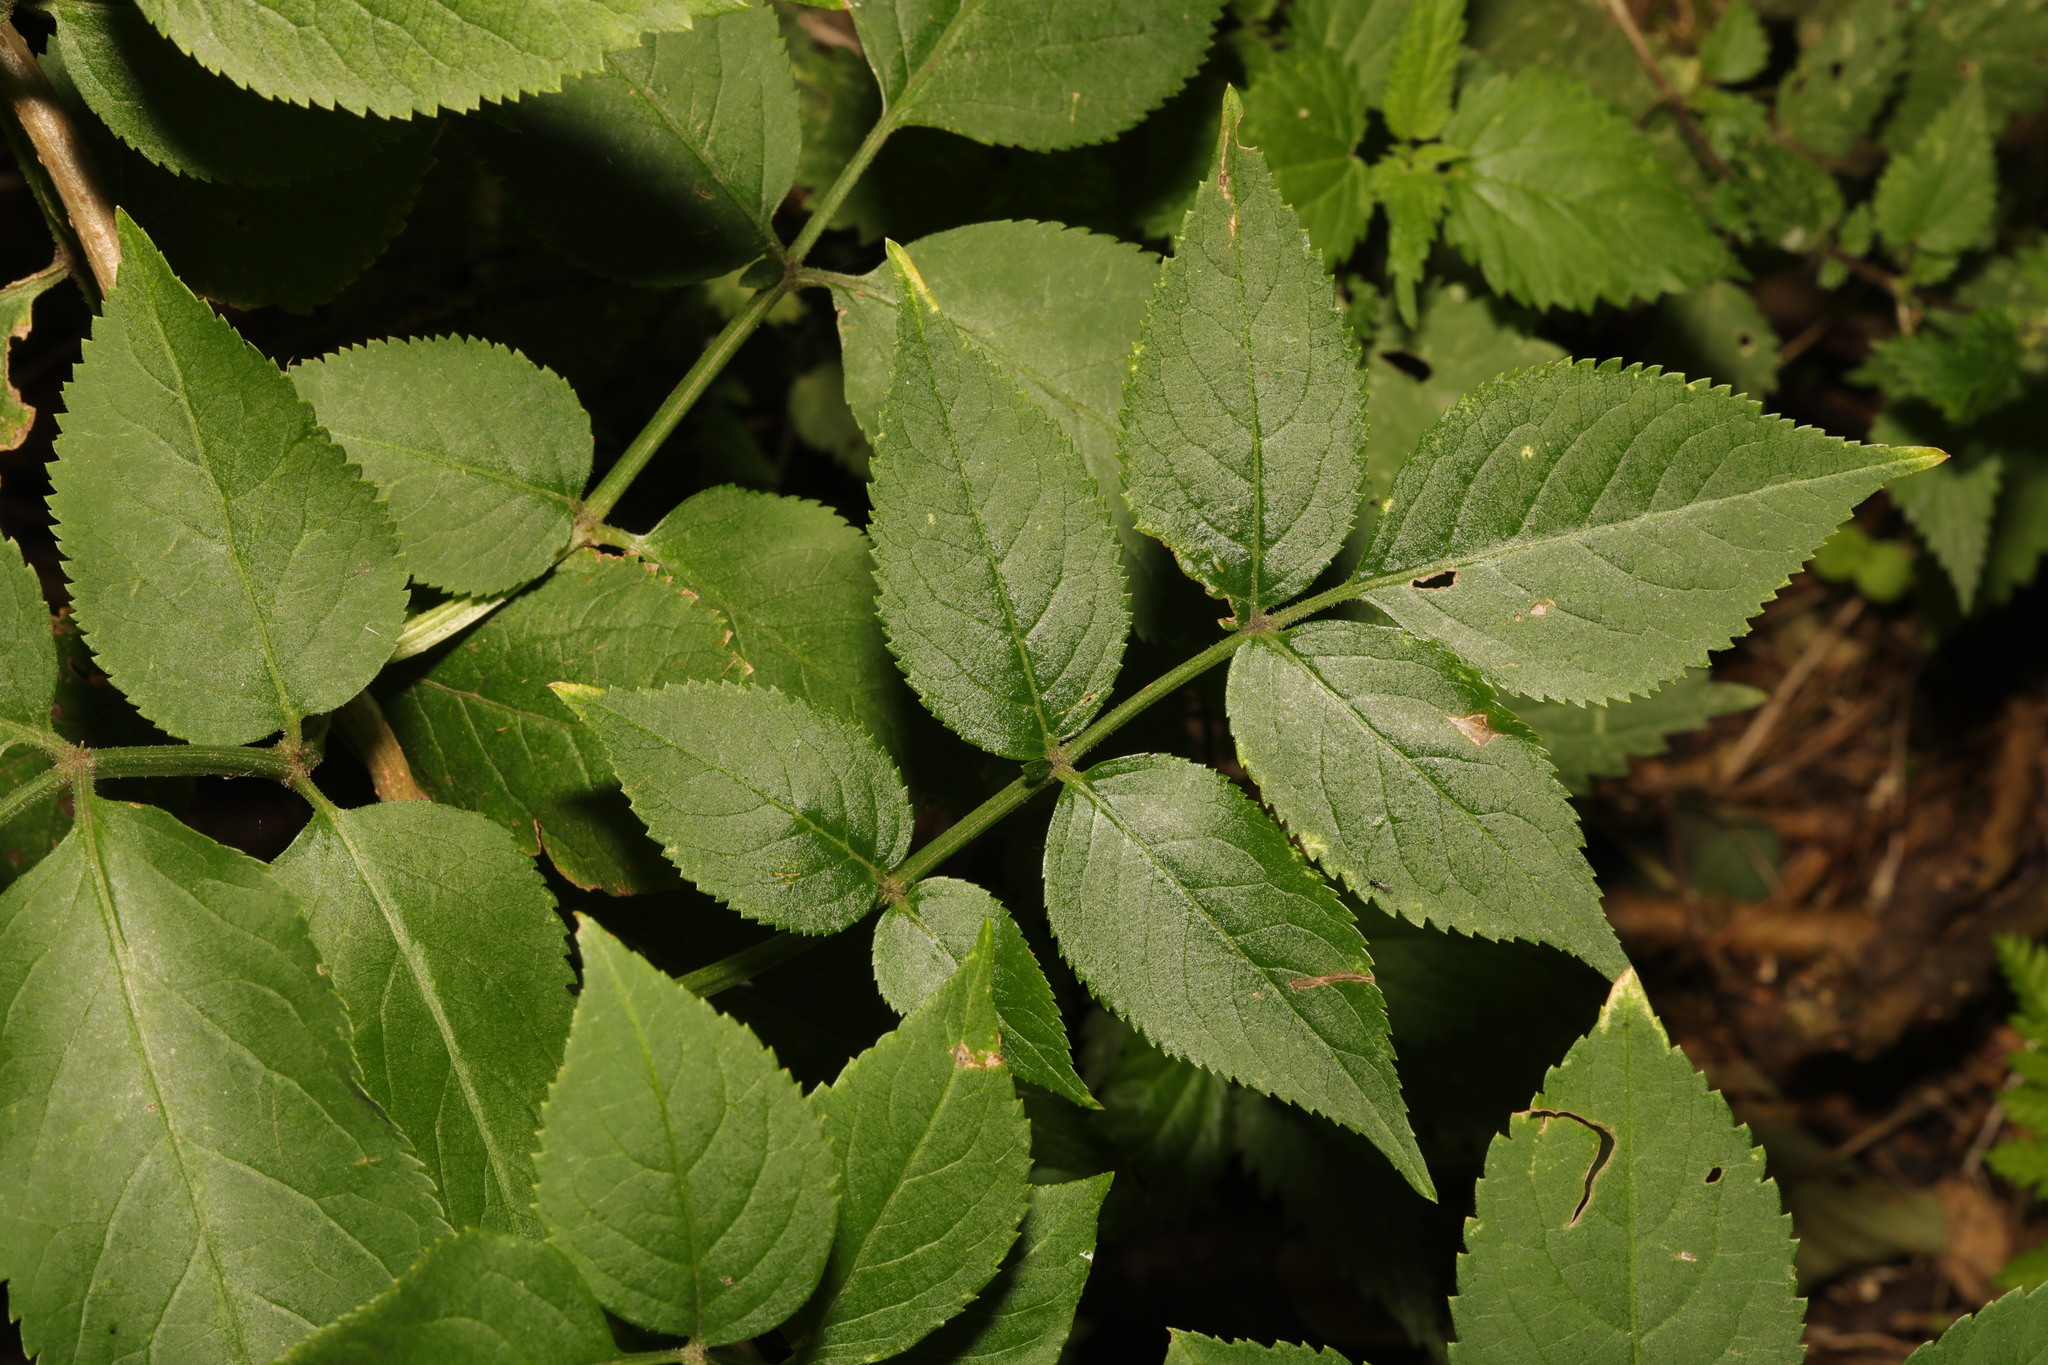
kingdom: Plantae
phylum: Tracheophyta
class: Magnoliopsida
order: Dipsacales
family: Viburnaceae
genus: Sambucus
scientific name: Sambucus nigra
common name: Elder
